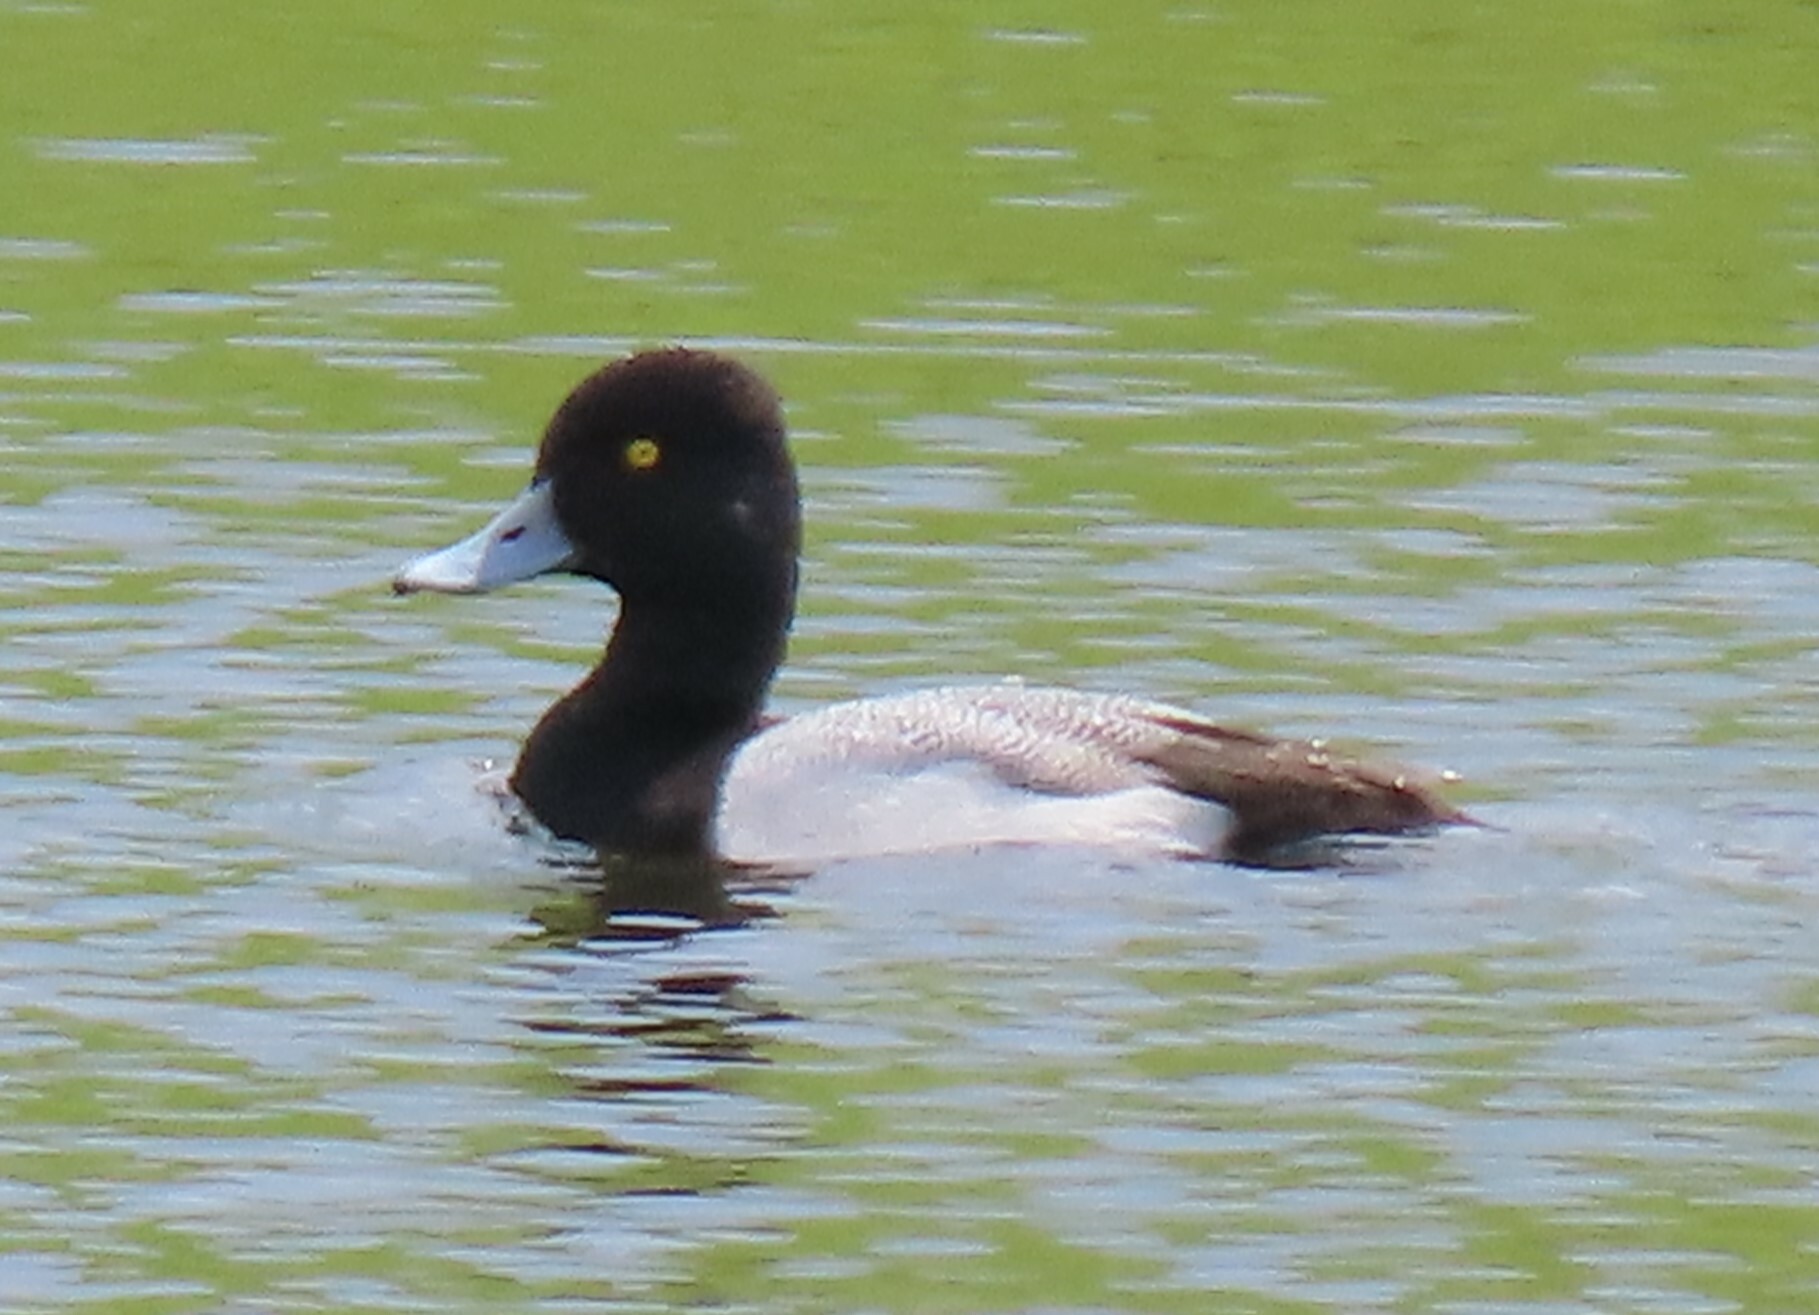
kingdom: Animalia
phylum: Chordata
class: Aves
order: Anseriformes
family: Anatidae
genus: Aythya
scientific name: Aythya affinis
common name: Lesser scaup
